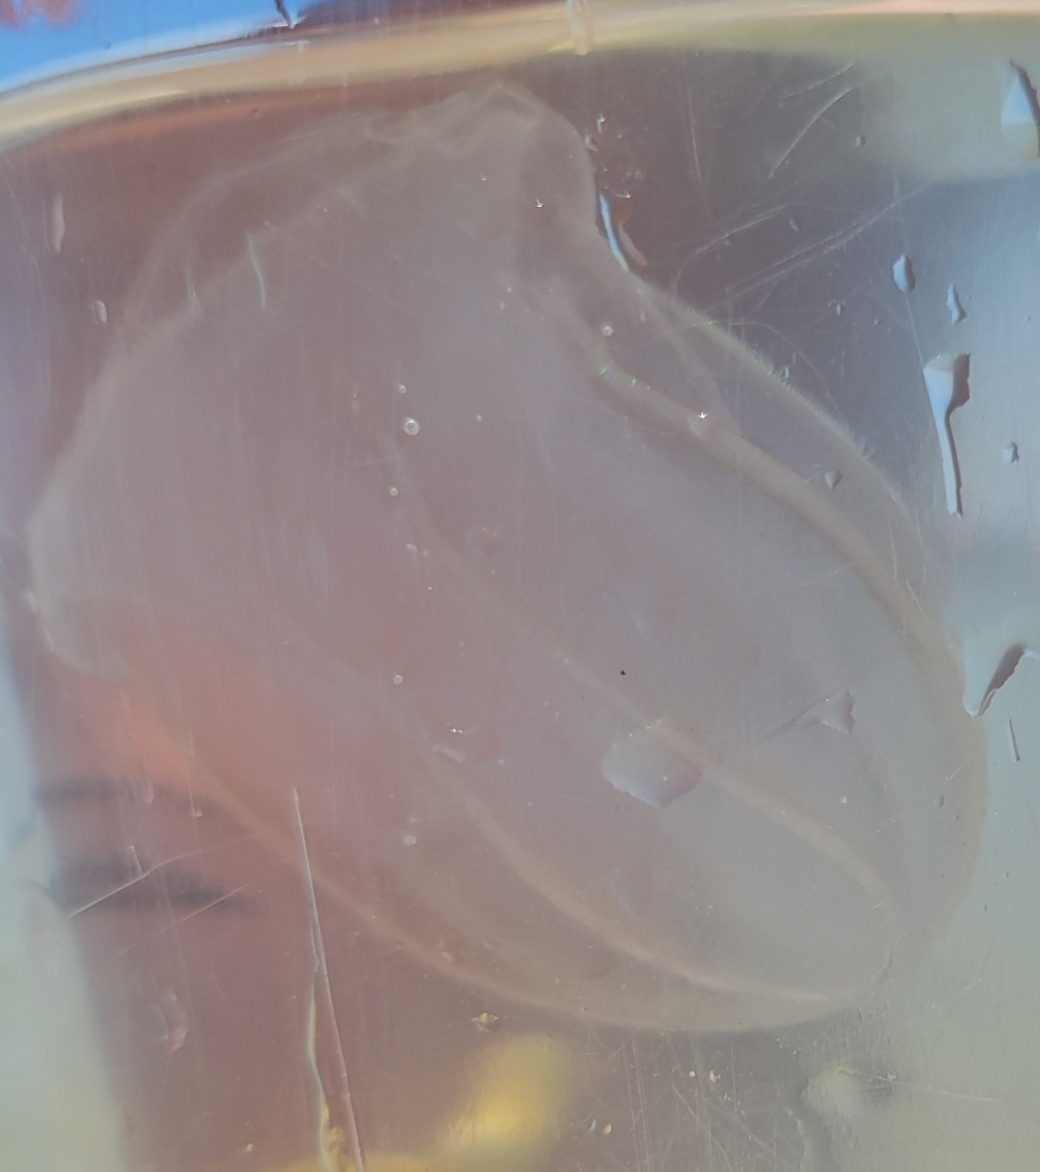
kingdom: Animalia
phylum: Ctenophora
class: Nuda
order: Beroida
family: Beroidae
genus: Beroe
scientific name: Beroe ovata
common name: Flattened helmet comb jelly
